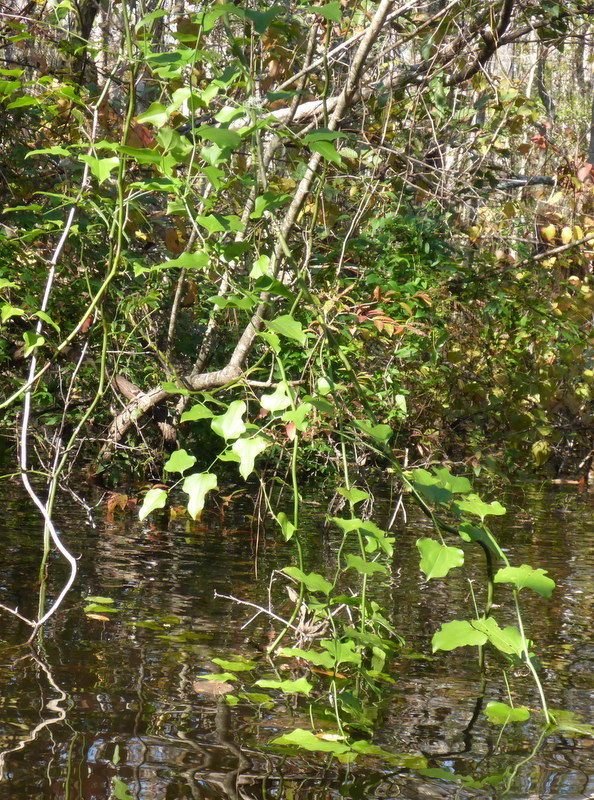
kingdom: Plantae
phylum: Tracheophyta
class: Liliopsida
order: Liliales
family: Smilacaceae
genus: Smilax
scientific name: Smilax tamnoides
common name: Hellfetter
